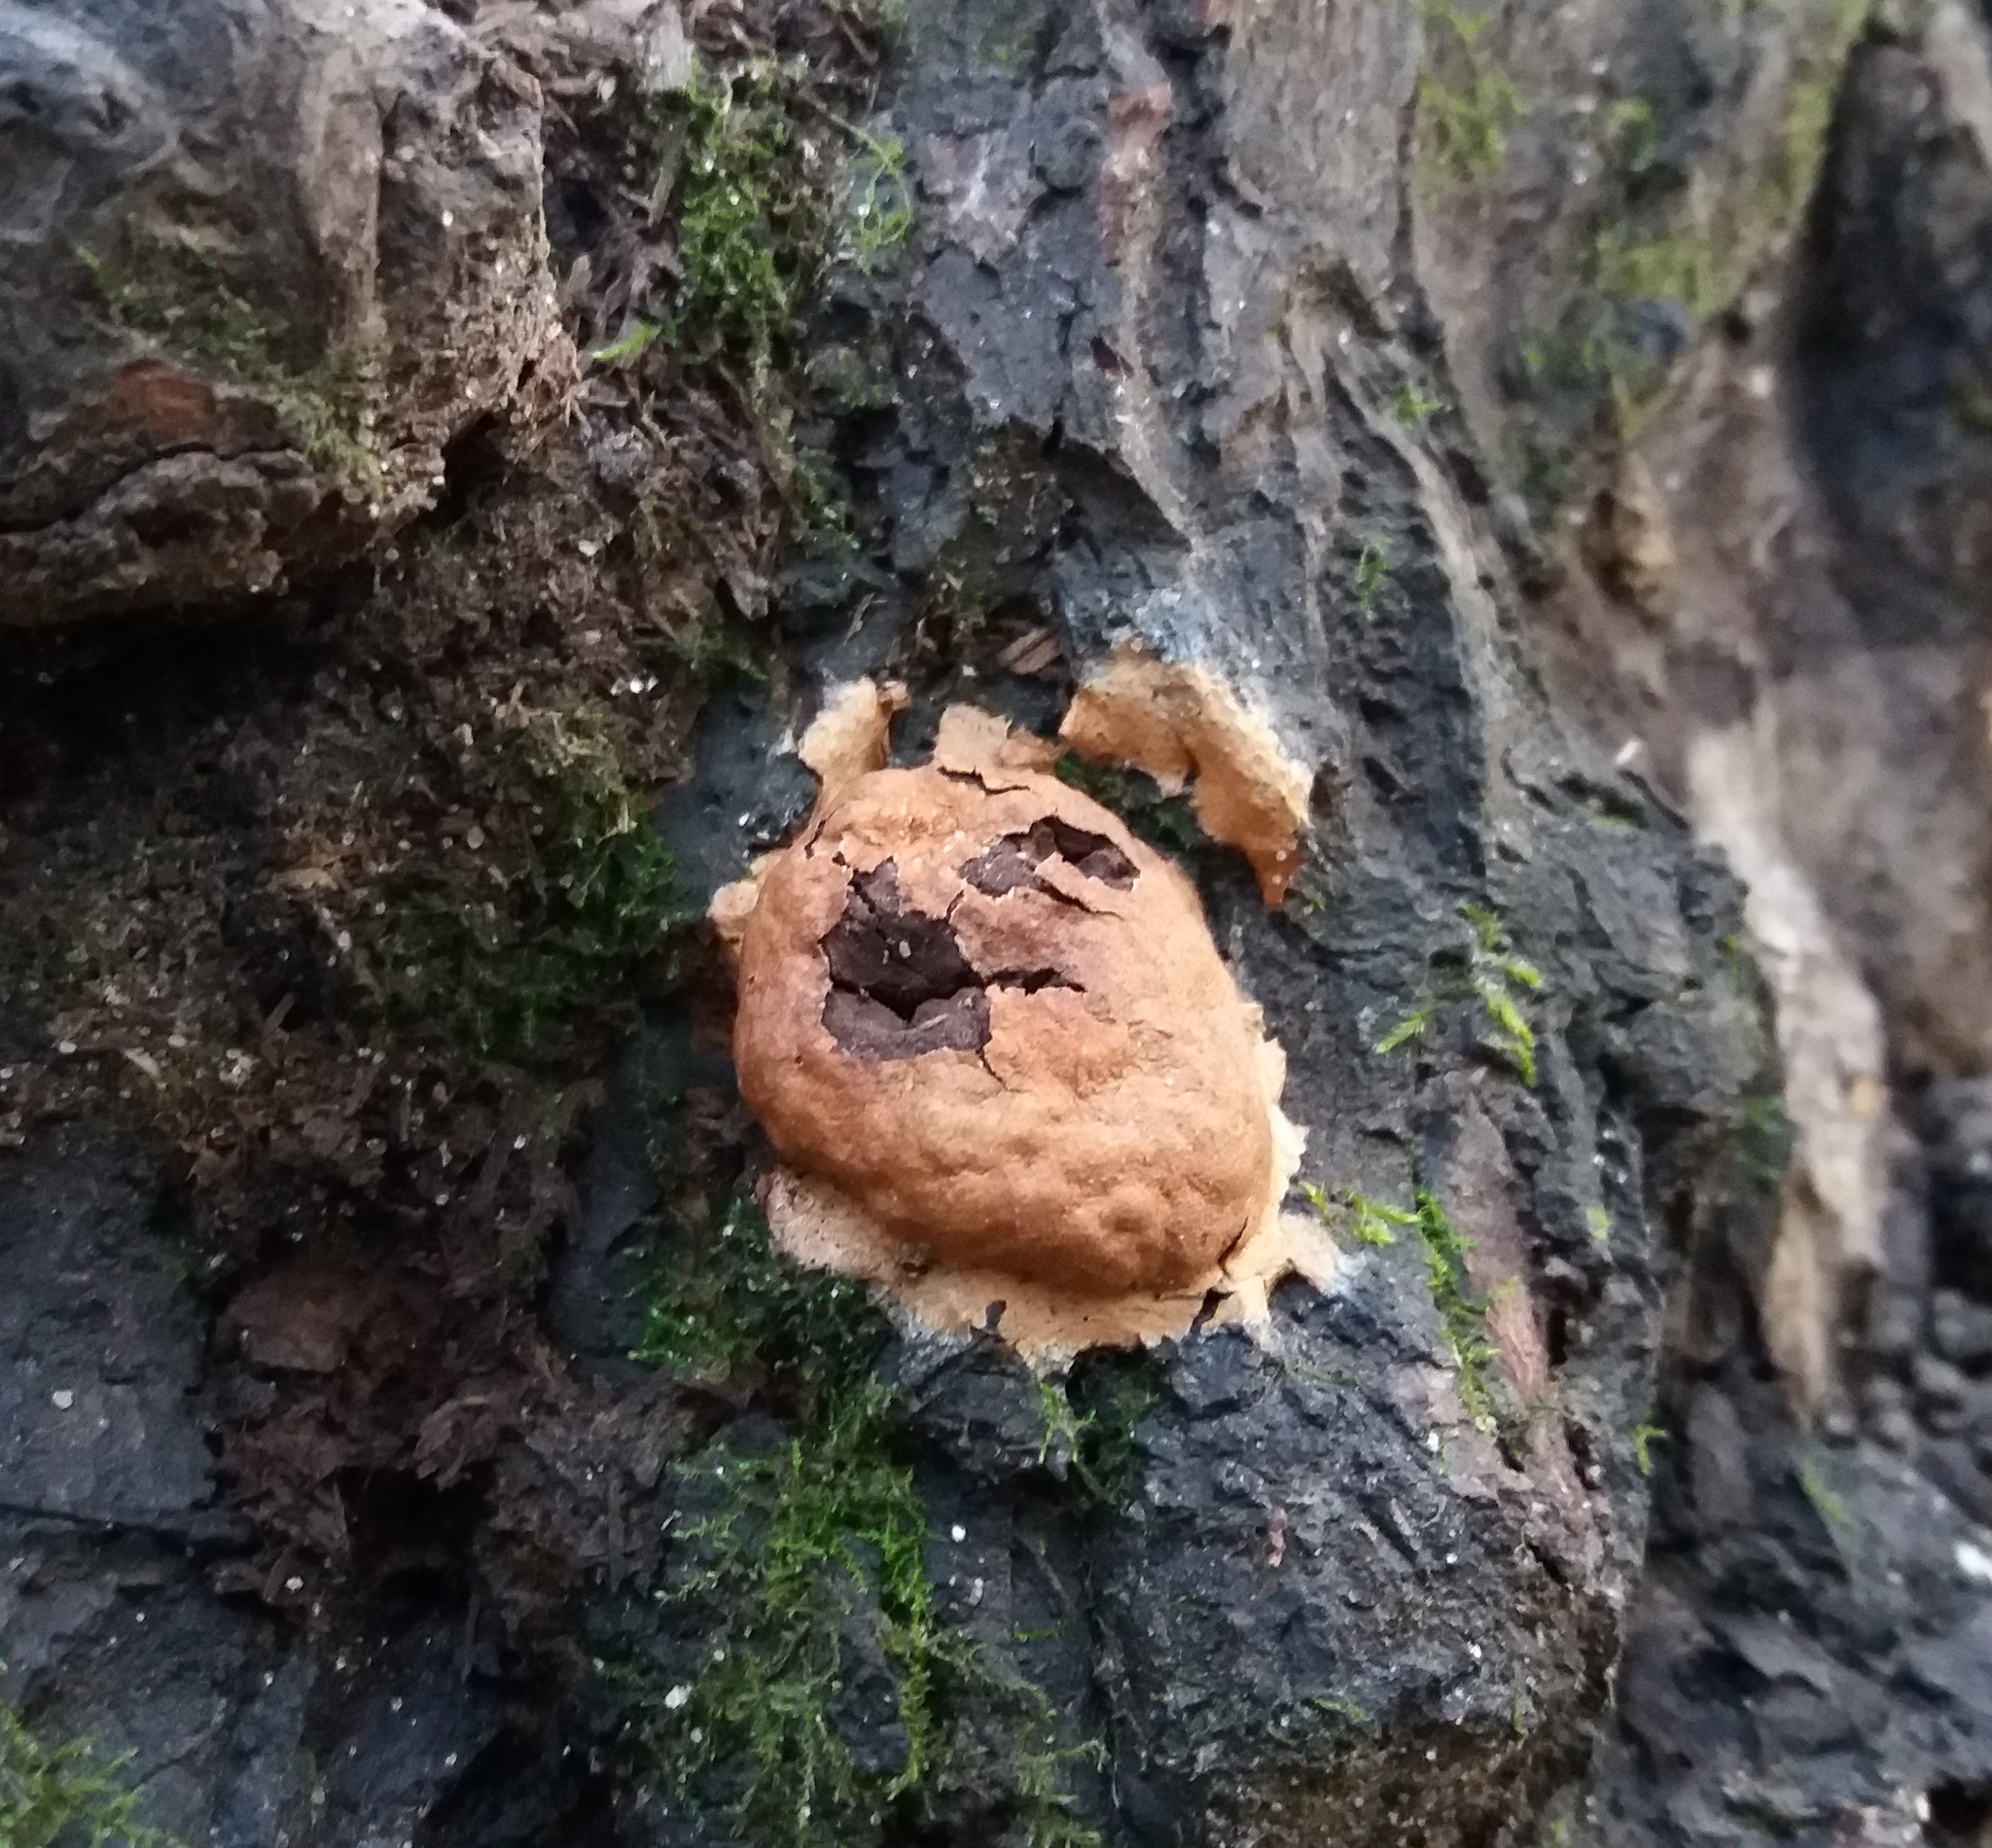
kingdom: Protozoa
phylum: Mycetozoa
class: Myxomycetes
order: Physarales
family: Physaraceae
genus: Fuligo
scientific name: Fuligo leviderma
